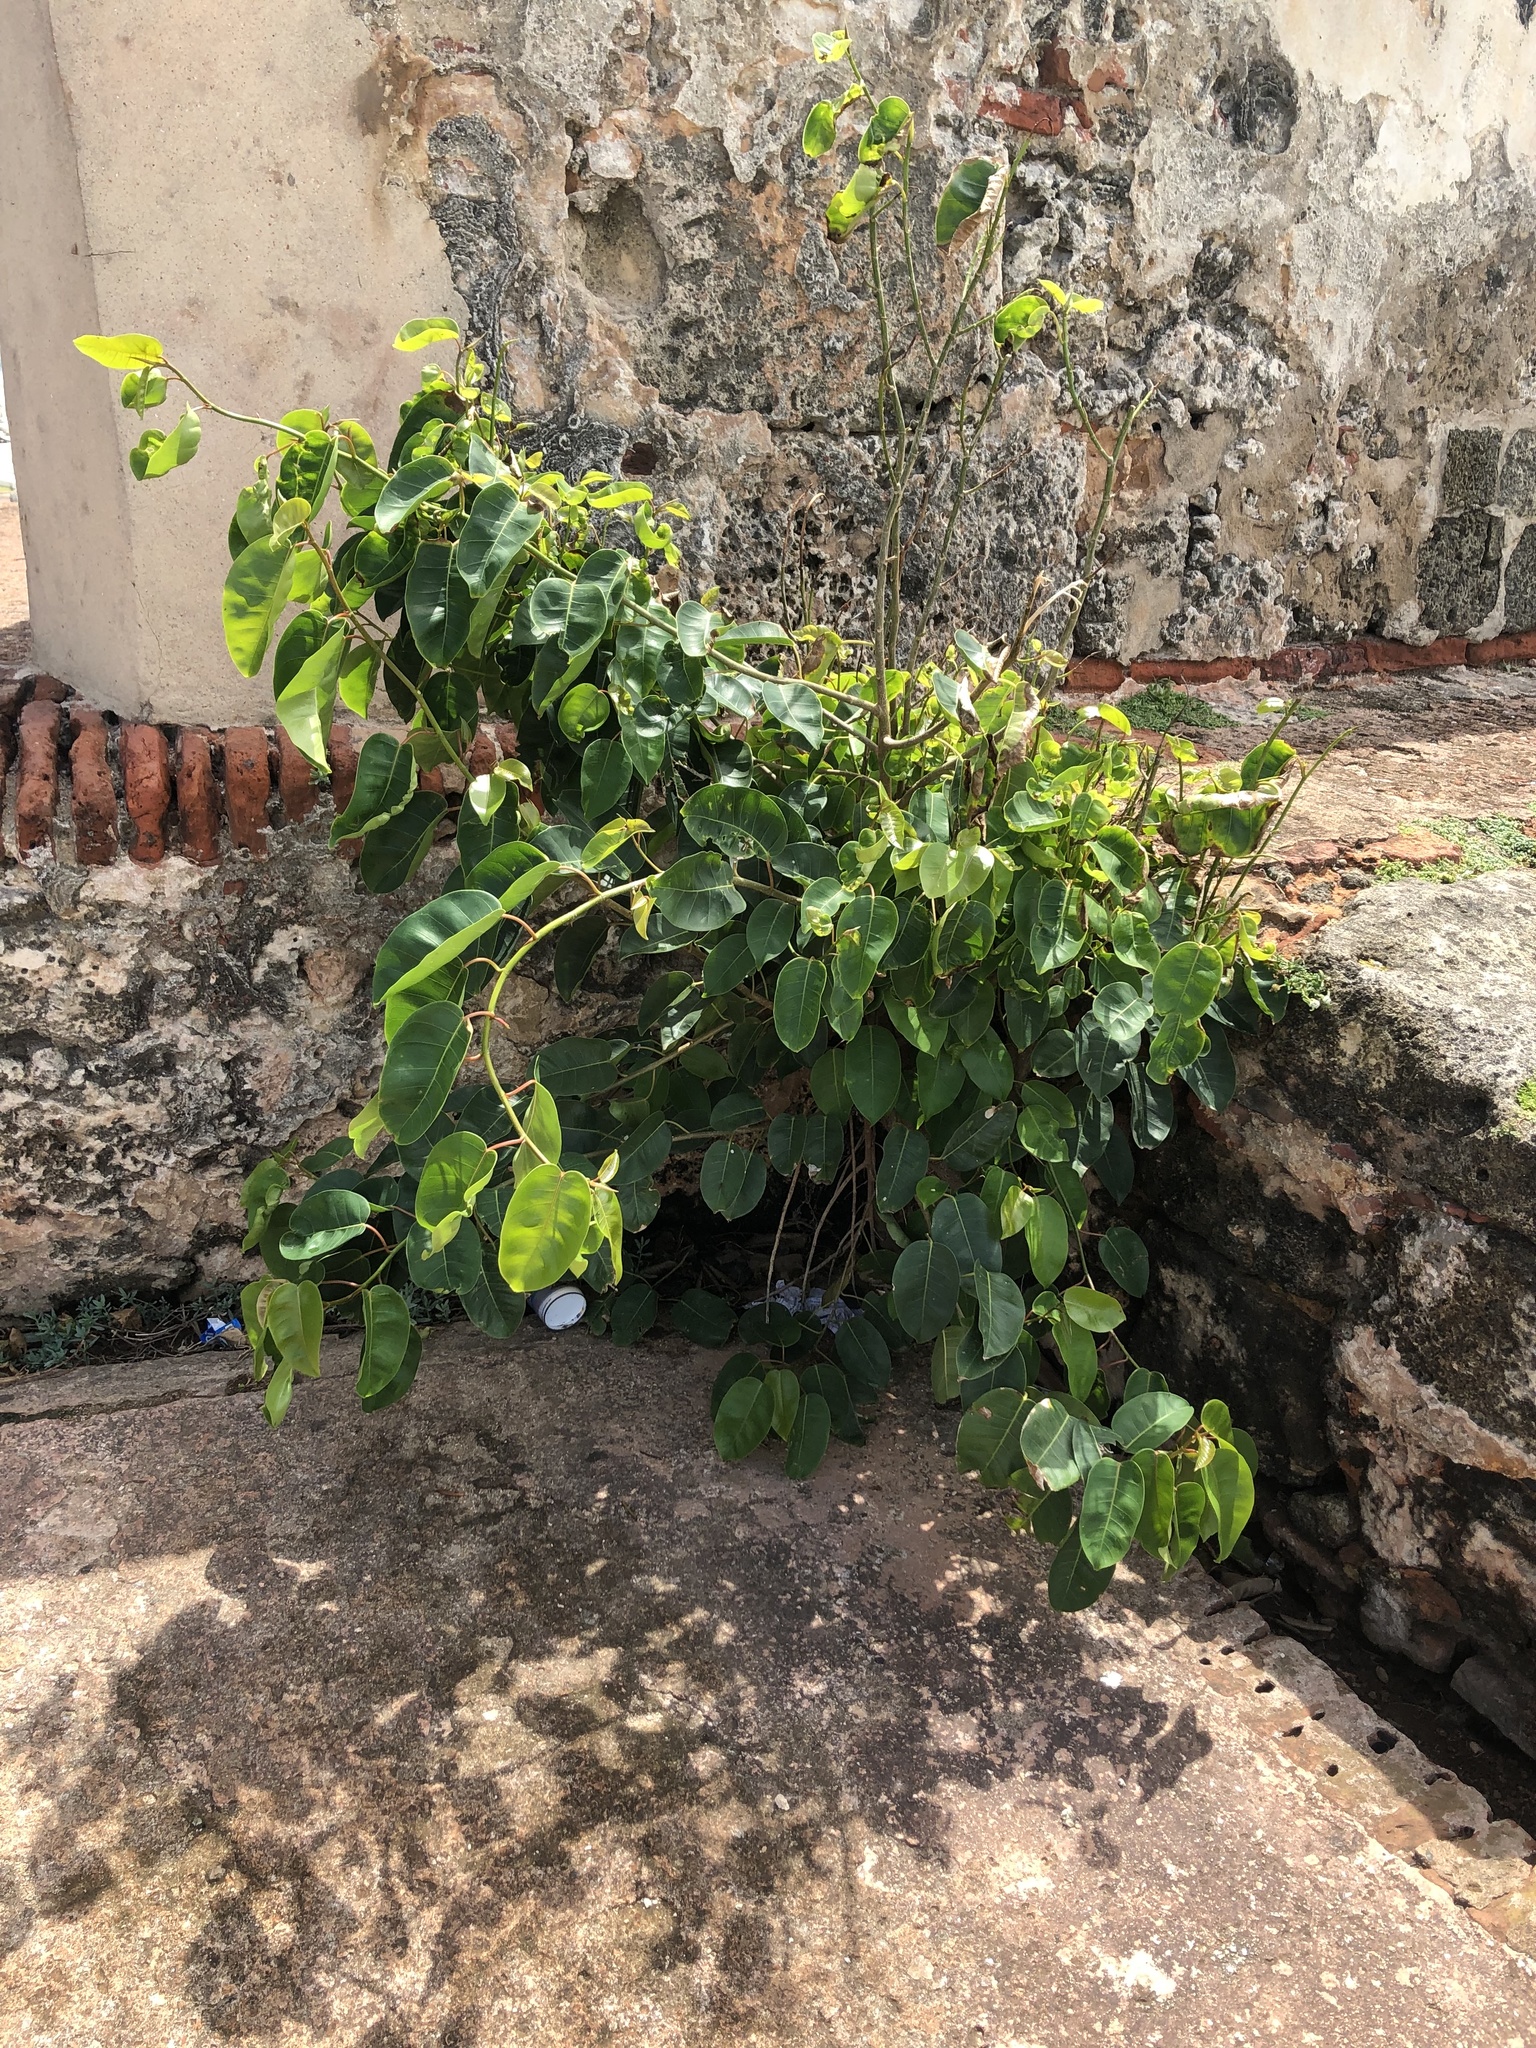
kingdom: Plantae
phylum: Tracheophyta
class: Magnoliopsida
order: Rosales
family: Moraceae
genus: Ficus
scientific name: Ficus citrifolia
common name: Strangler fig
